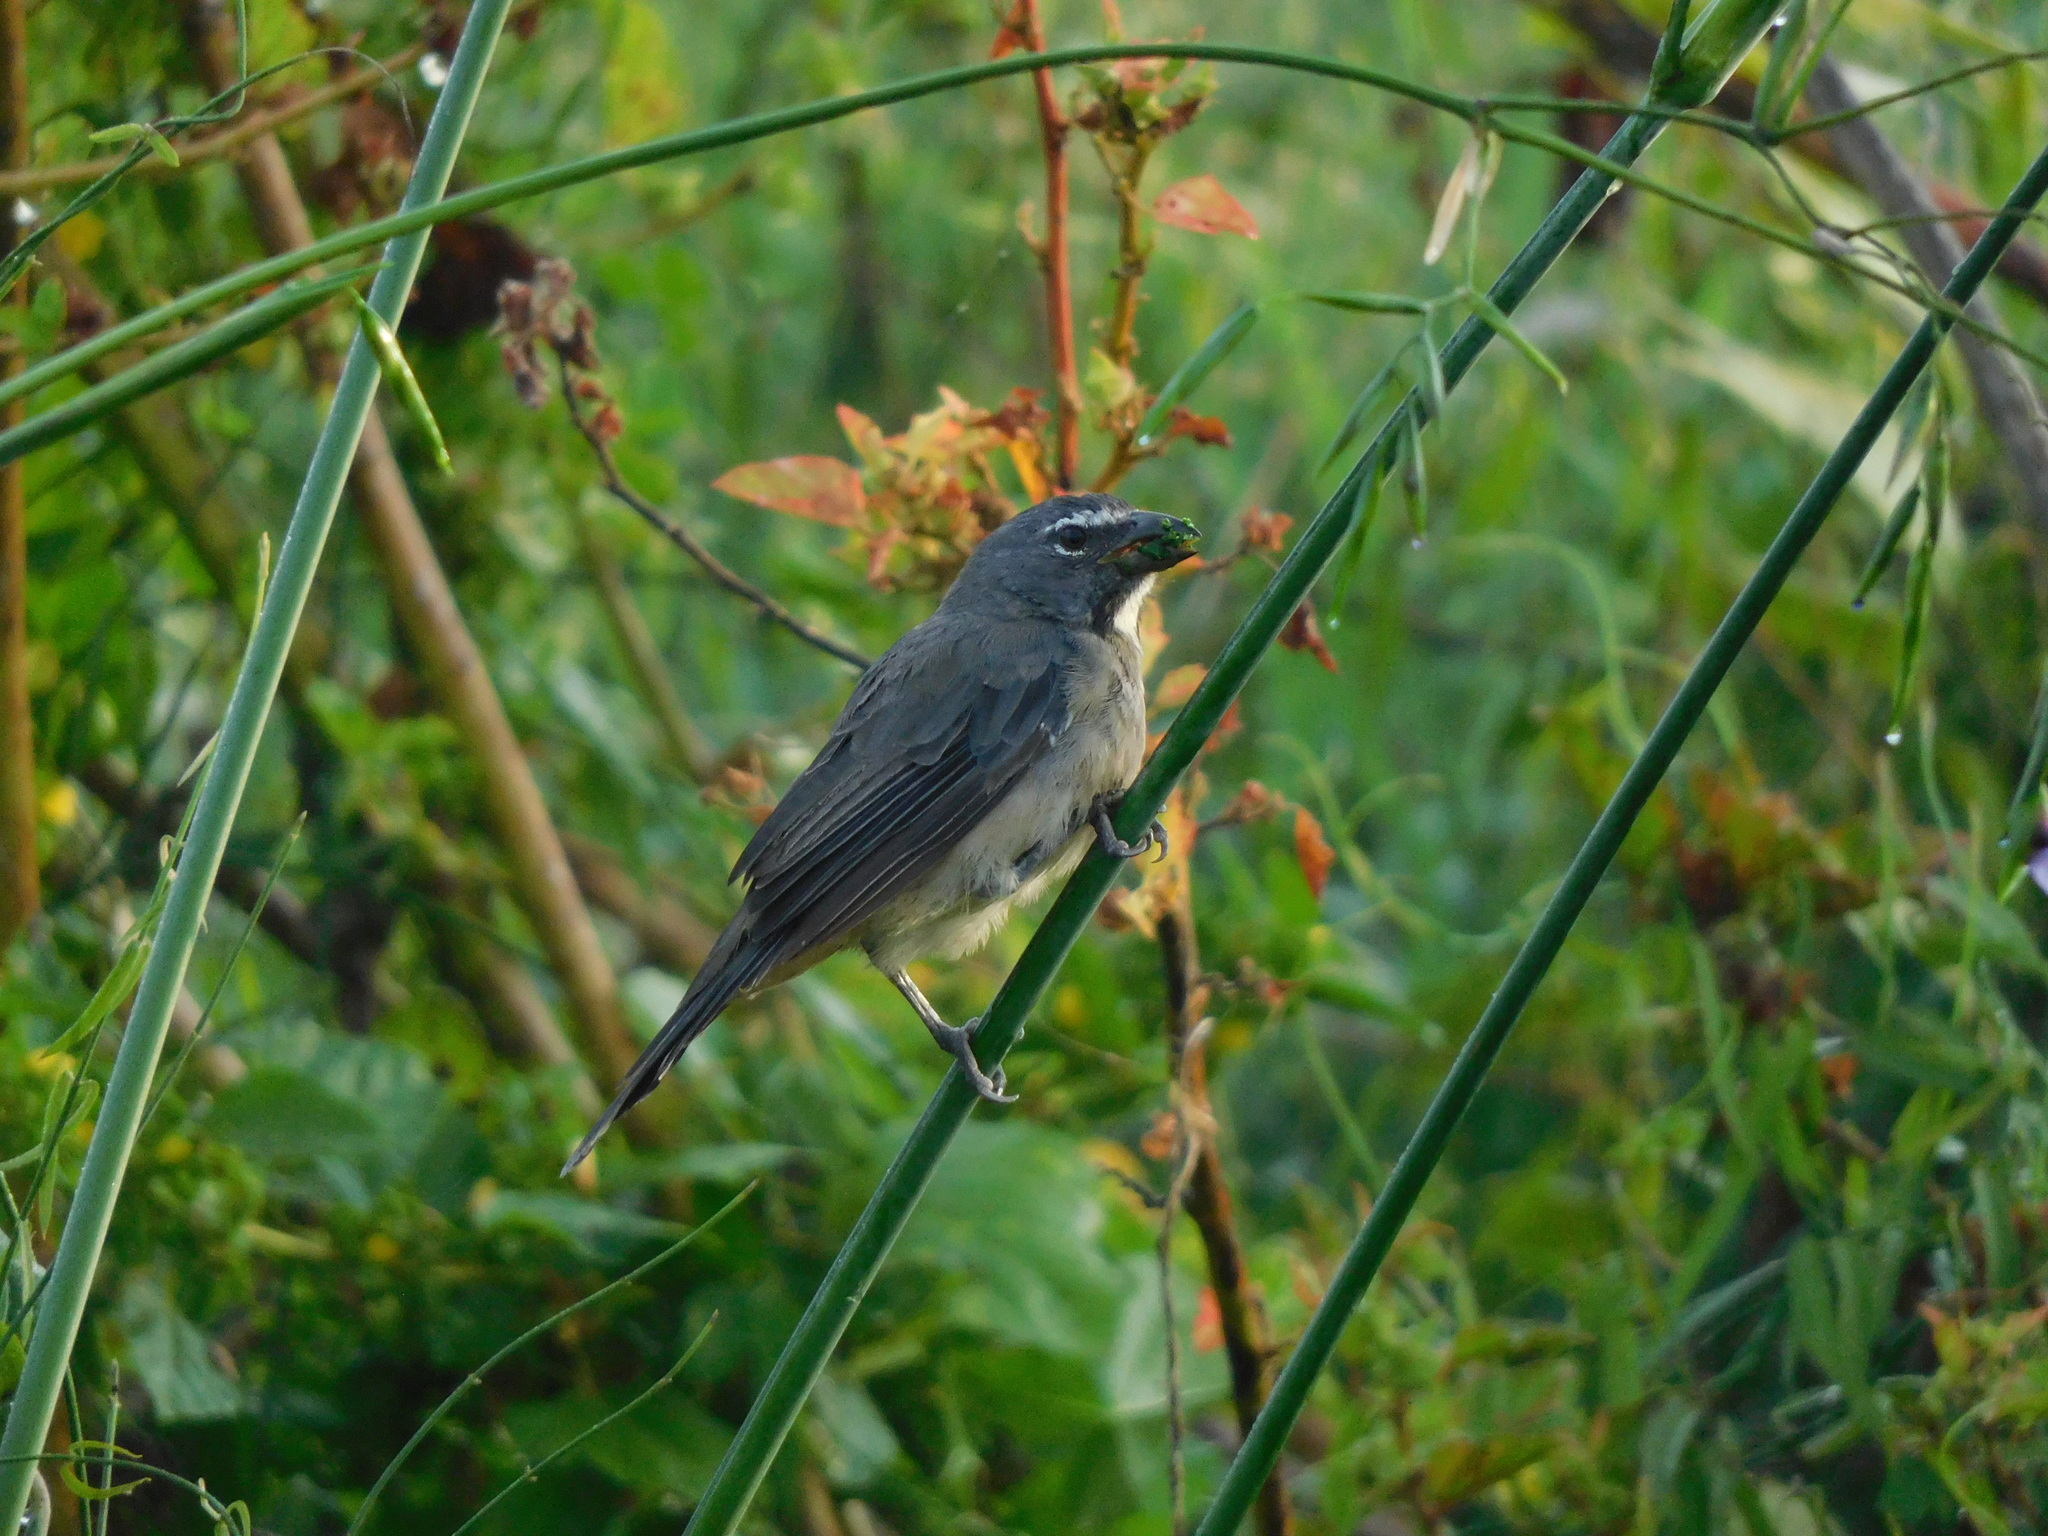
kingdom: Animalia
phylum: Chordata
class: Aves
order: Passeriformes
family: Thraupidae
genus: Saltator
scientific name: Saltator olivascens
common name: Caribbean grey saltator
